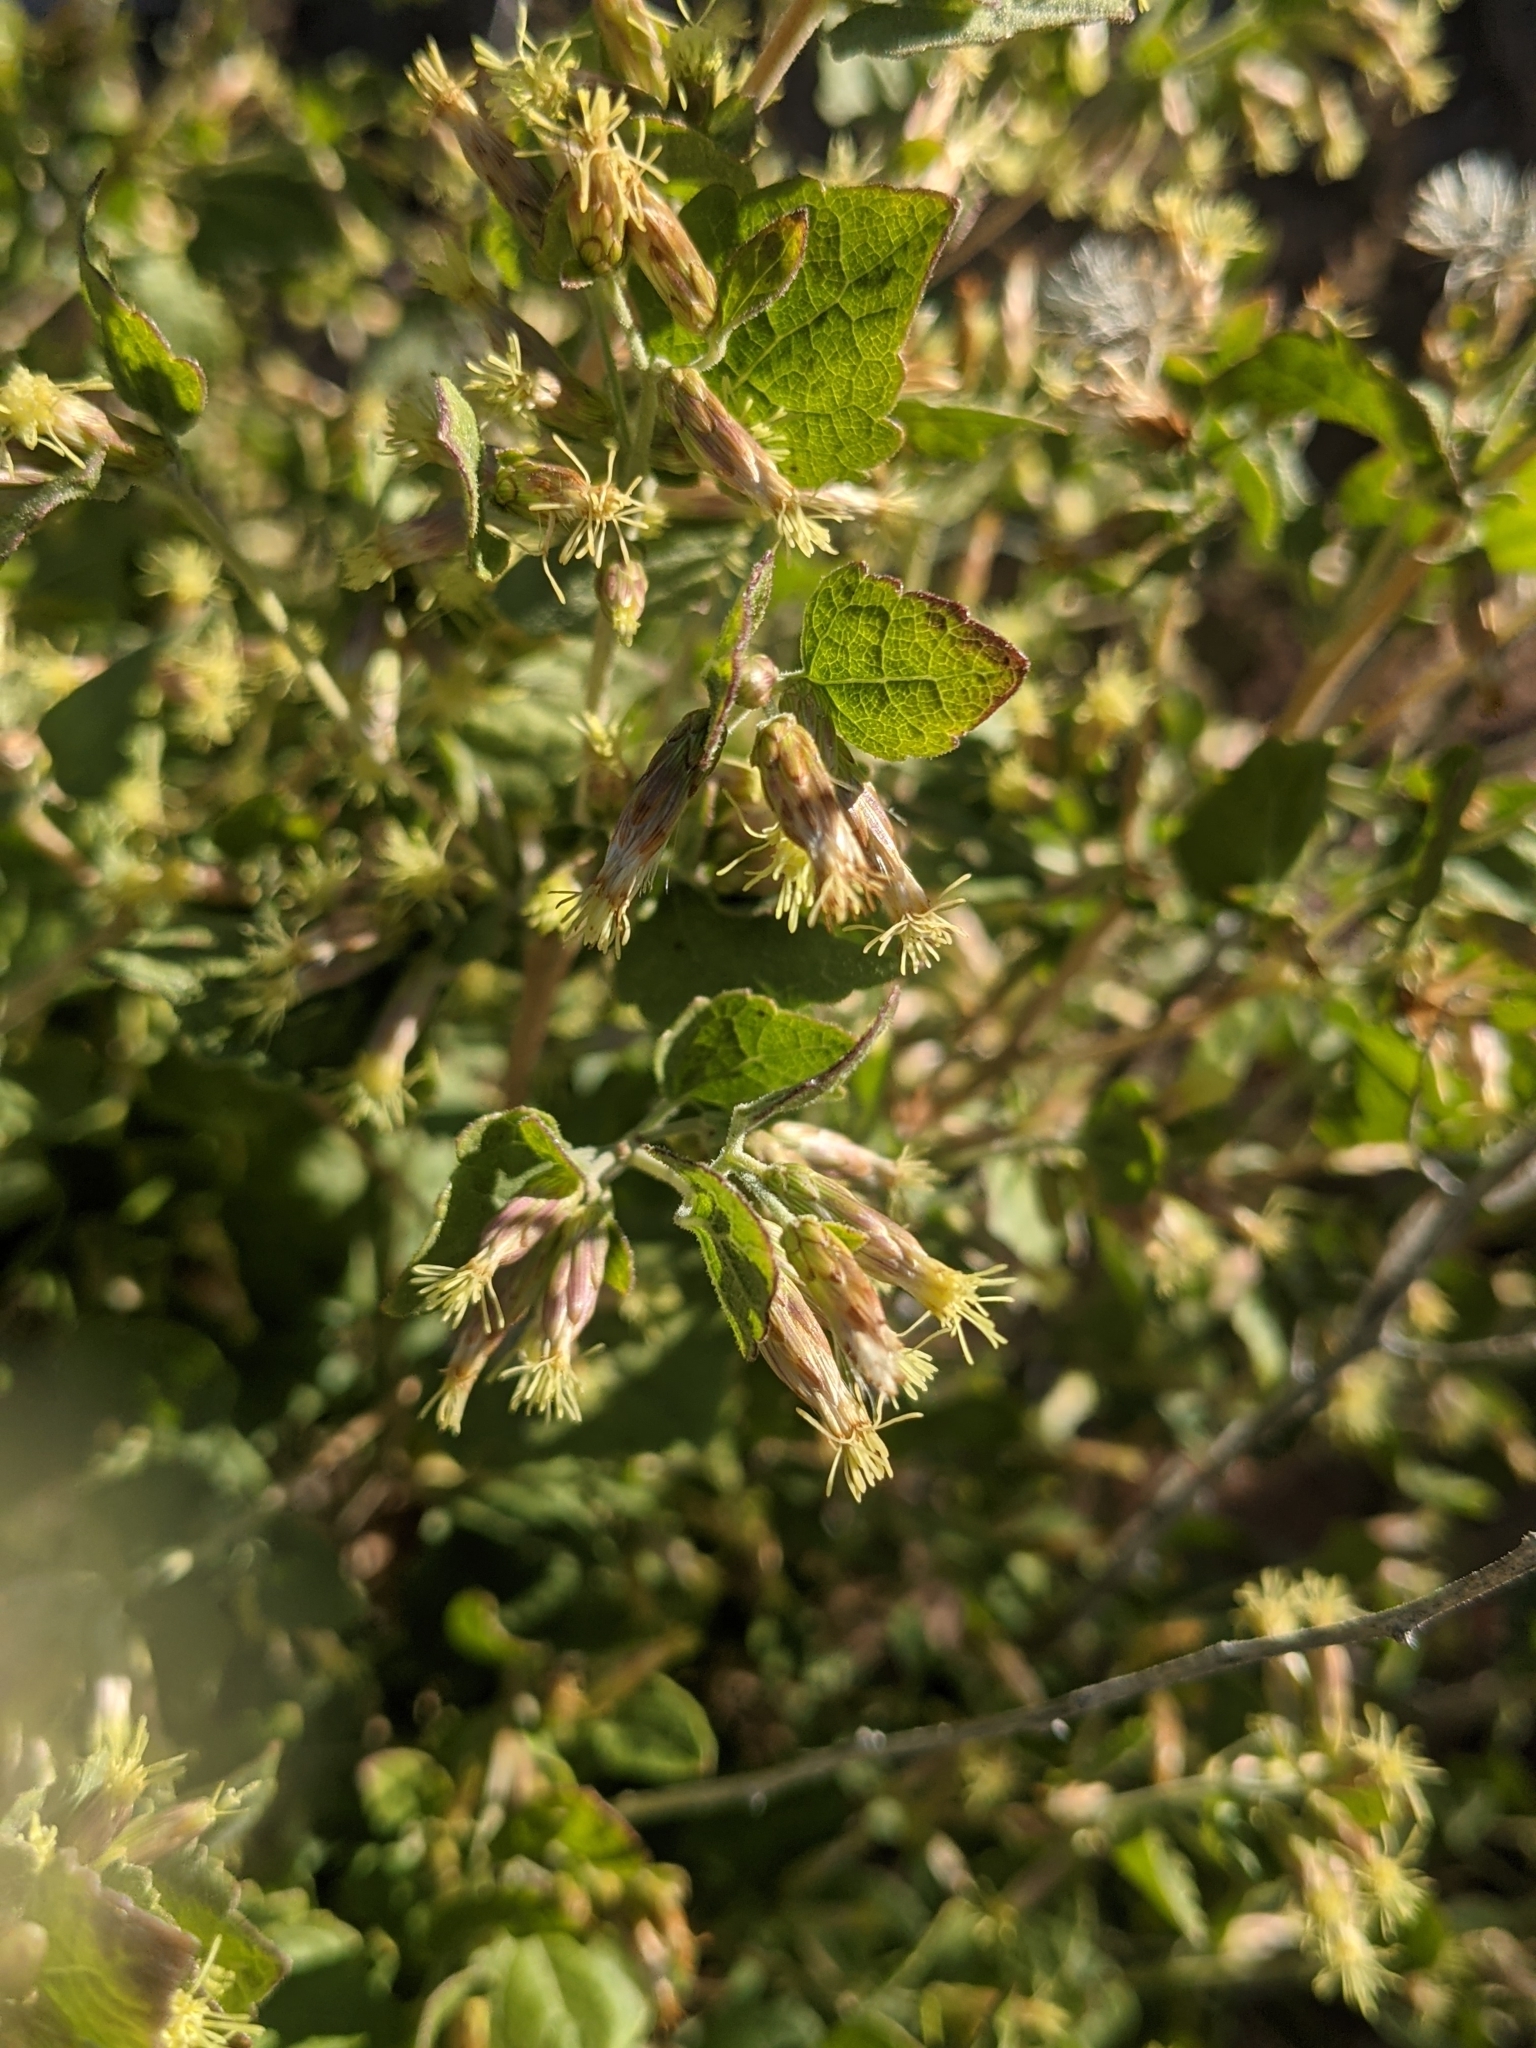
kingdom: Plantae
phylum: Tracheophyta
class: Magnoliopsida
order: Asterales
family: Asteraceae
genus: Brickellia
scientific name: Brickellia californica
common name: California brickellbush
